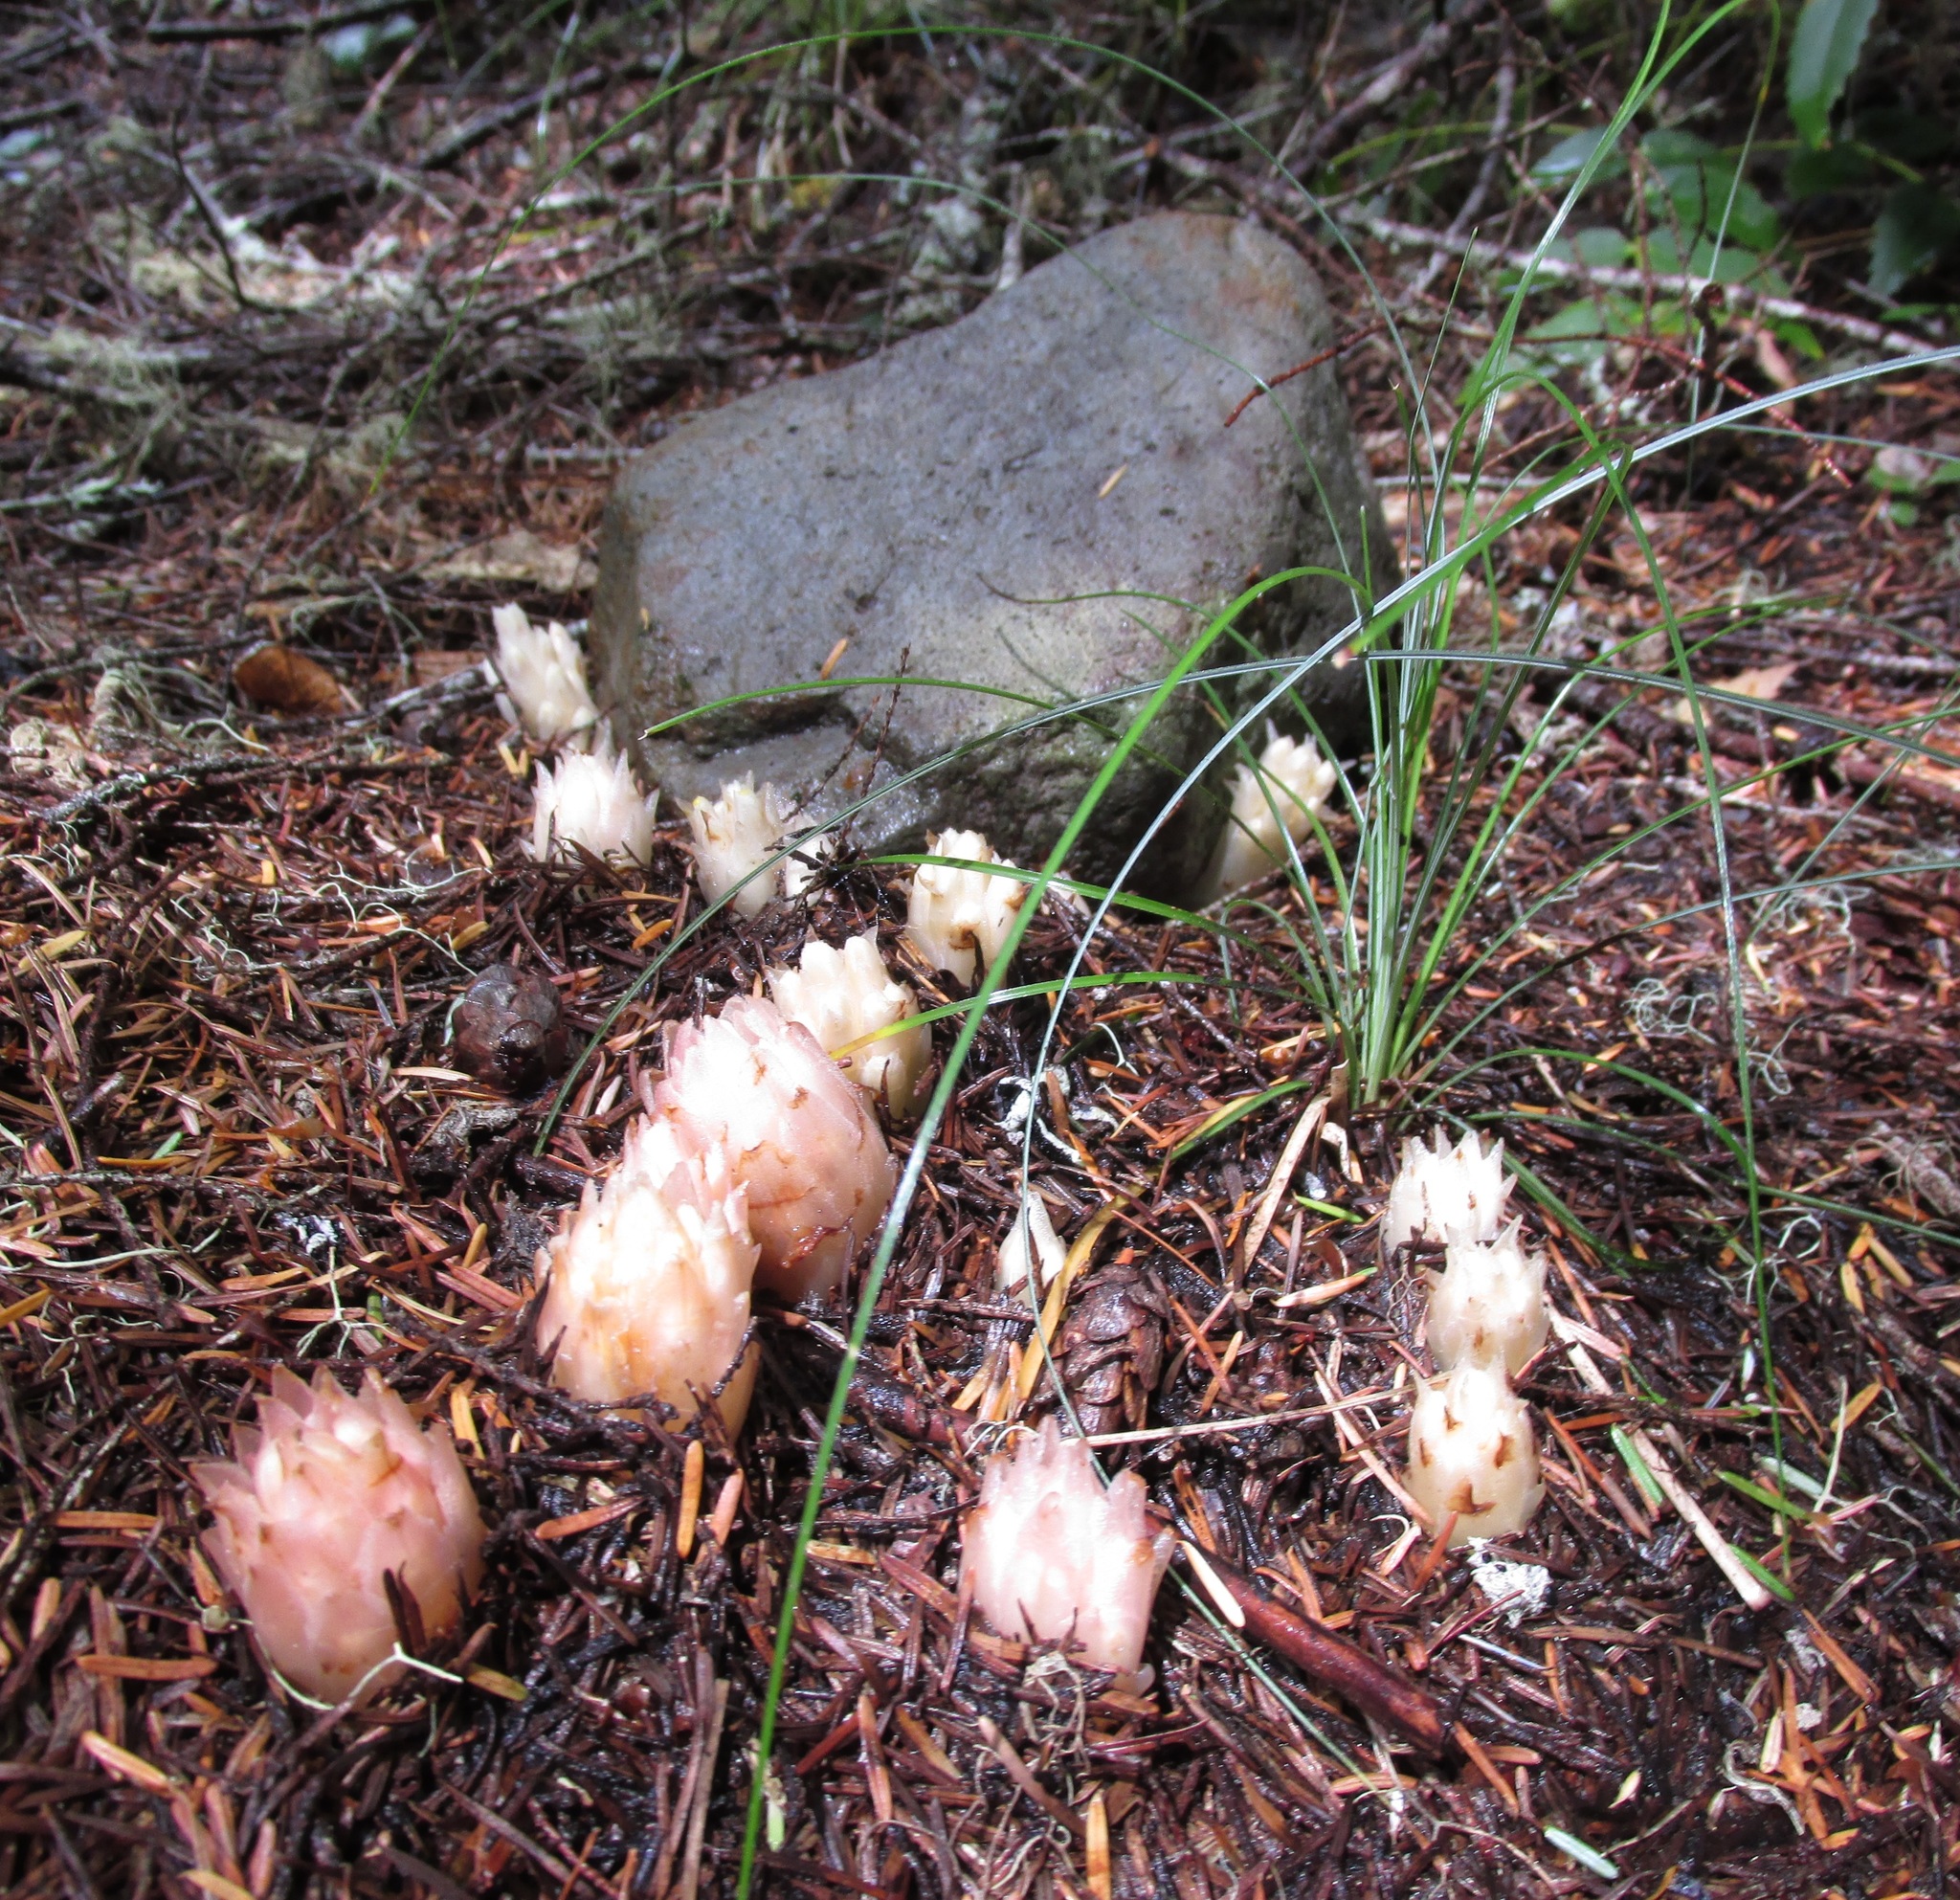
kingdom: Plantae
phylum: Tracheophyta
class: Magnoliopsida
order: Ericales
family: Ericaceae
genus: Hemitomes
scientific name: Hemitomes congestum
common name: Cone plant
